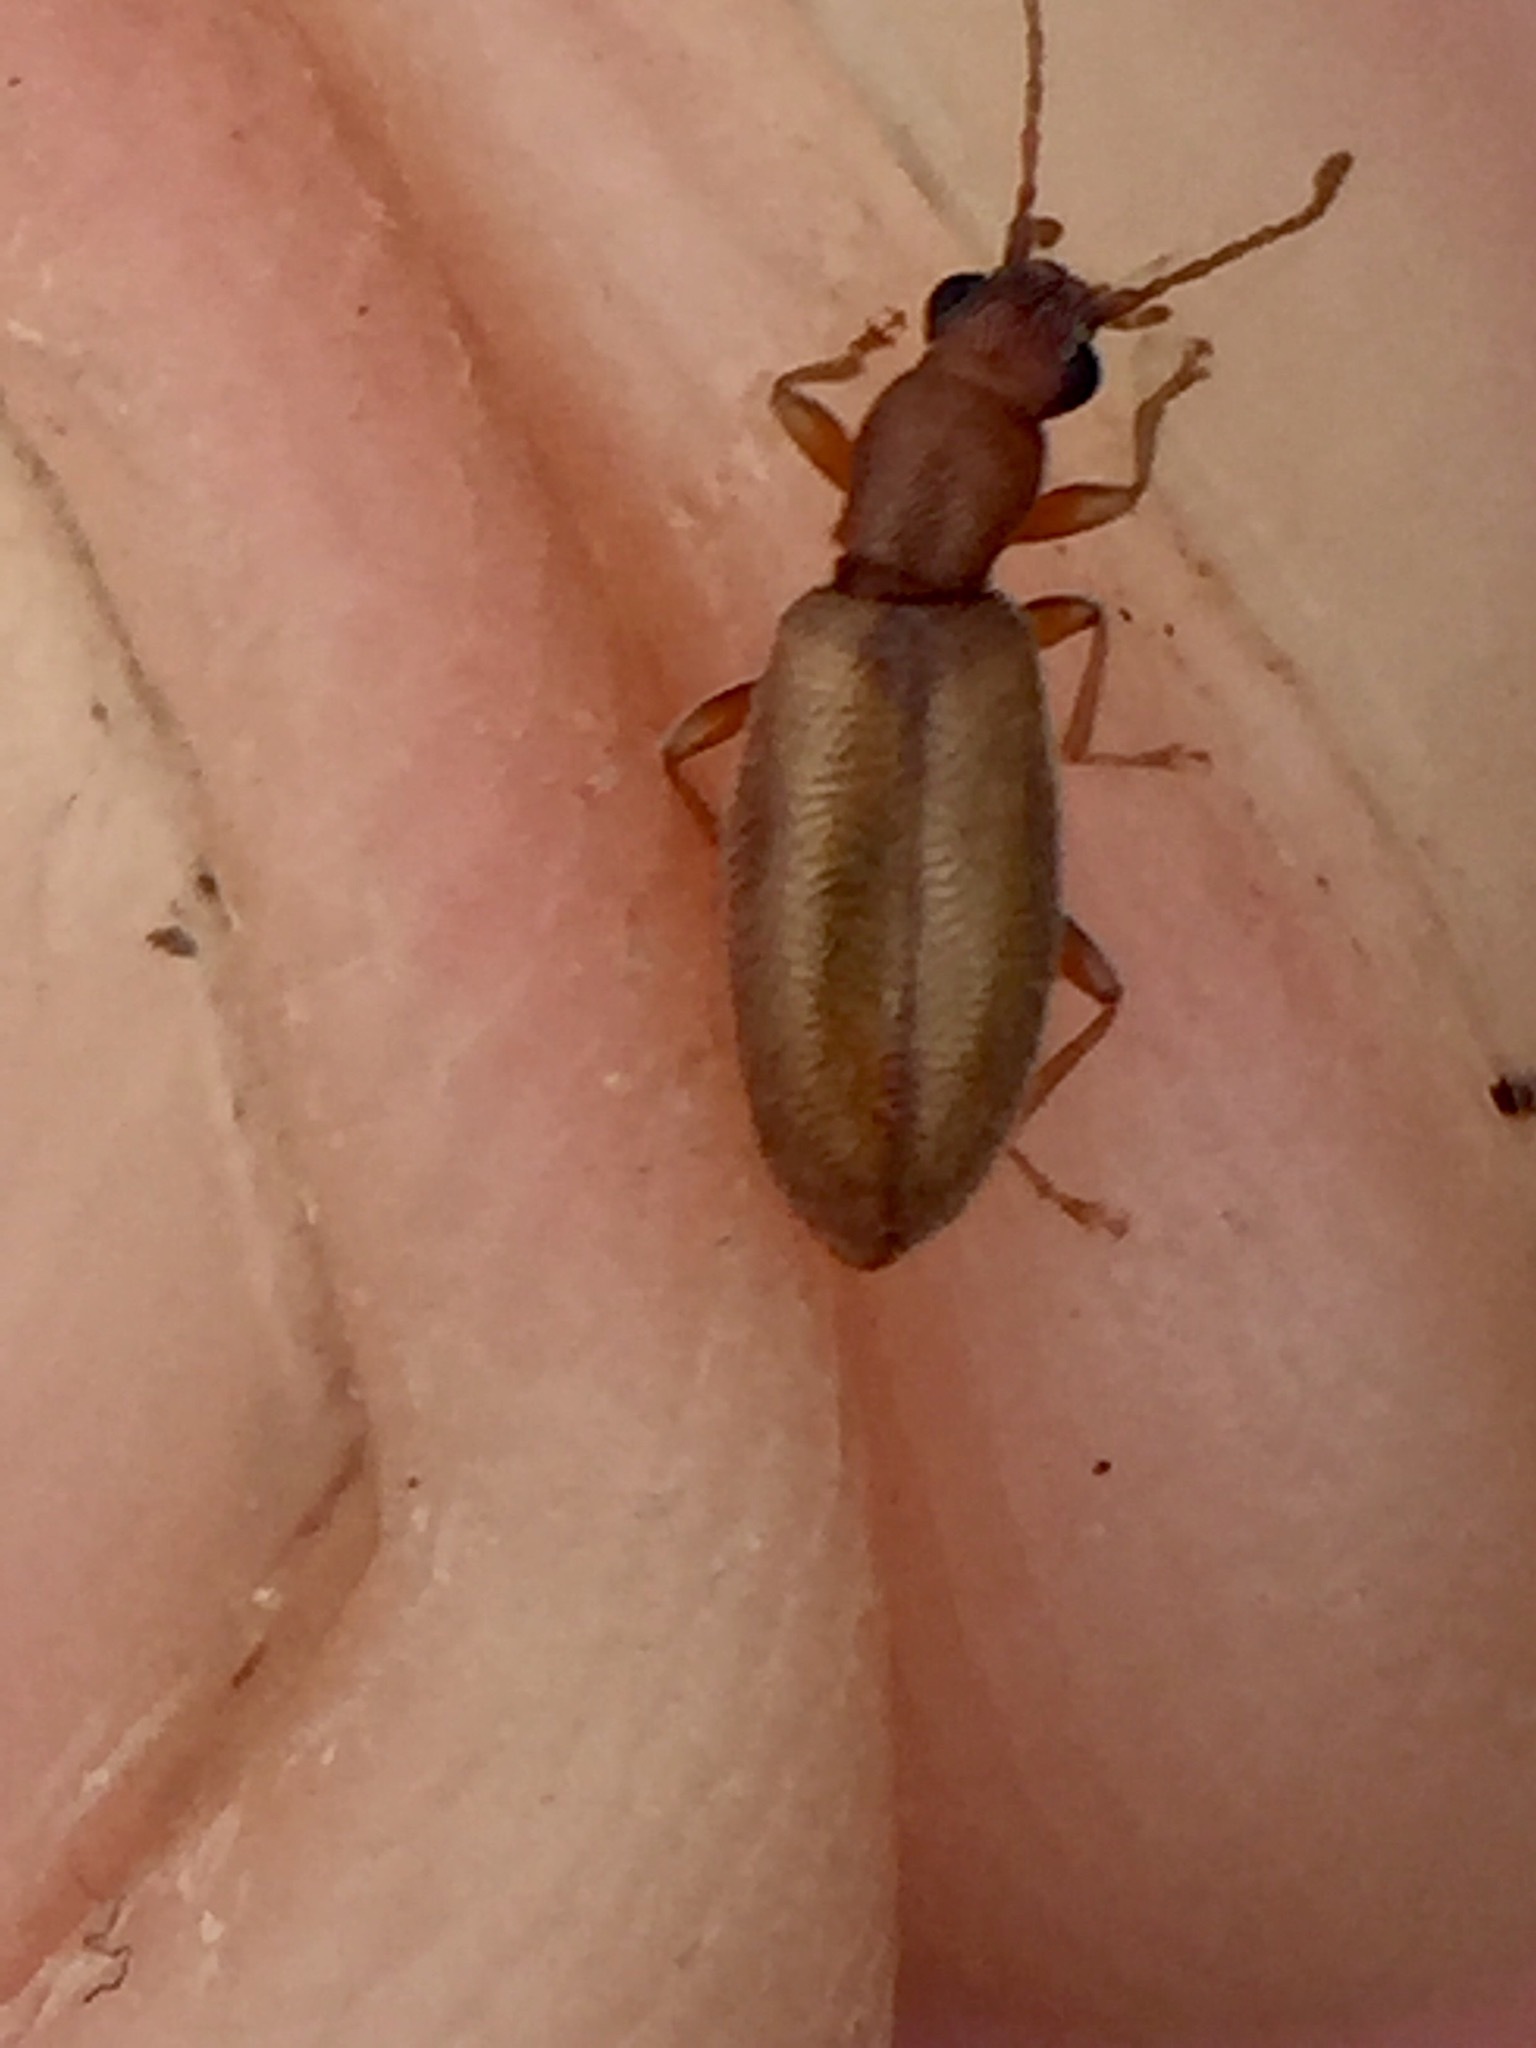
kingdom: Animalia
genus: Lagrioda
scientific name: Lagrioda brounii
